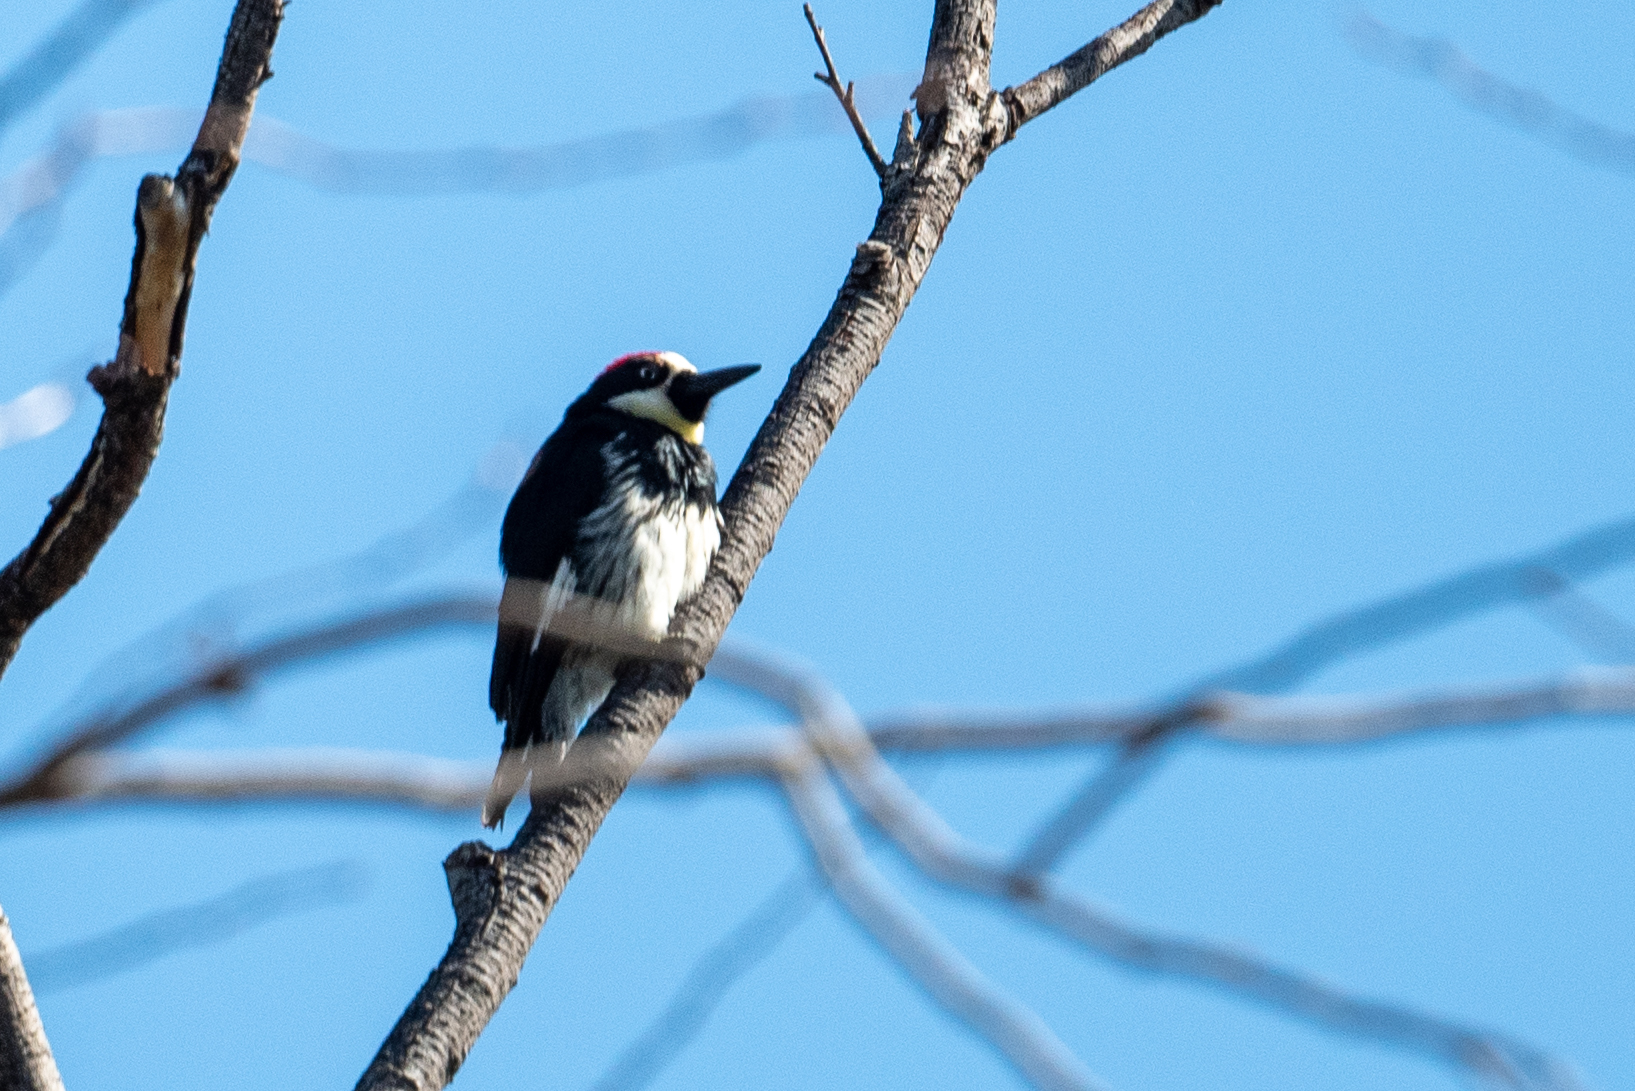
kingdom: Animalia
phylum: Chordata
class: Aves
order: Piciformes
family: Picidae
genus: Melanerpes
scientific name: Melanerpes formicivorus
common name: Acorn woodpecker
